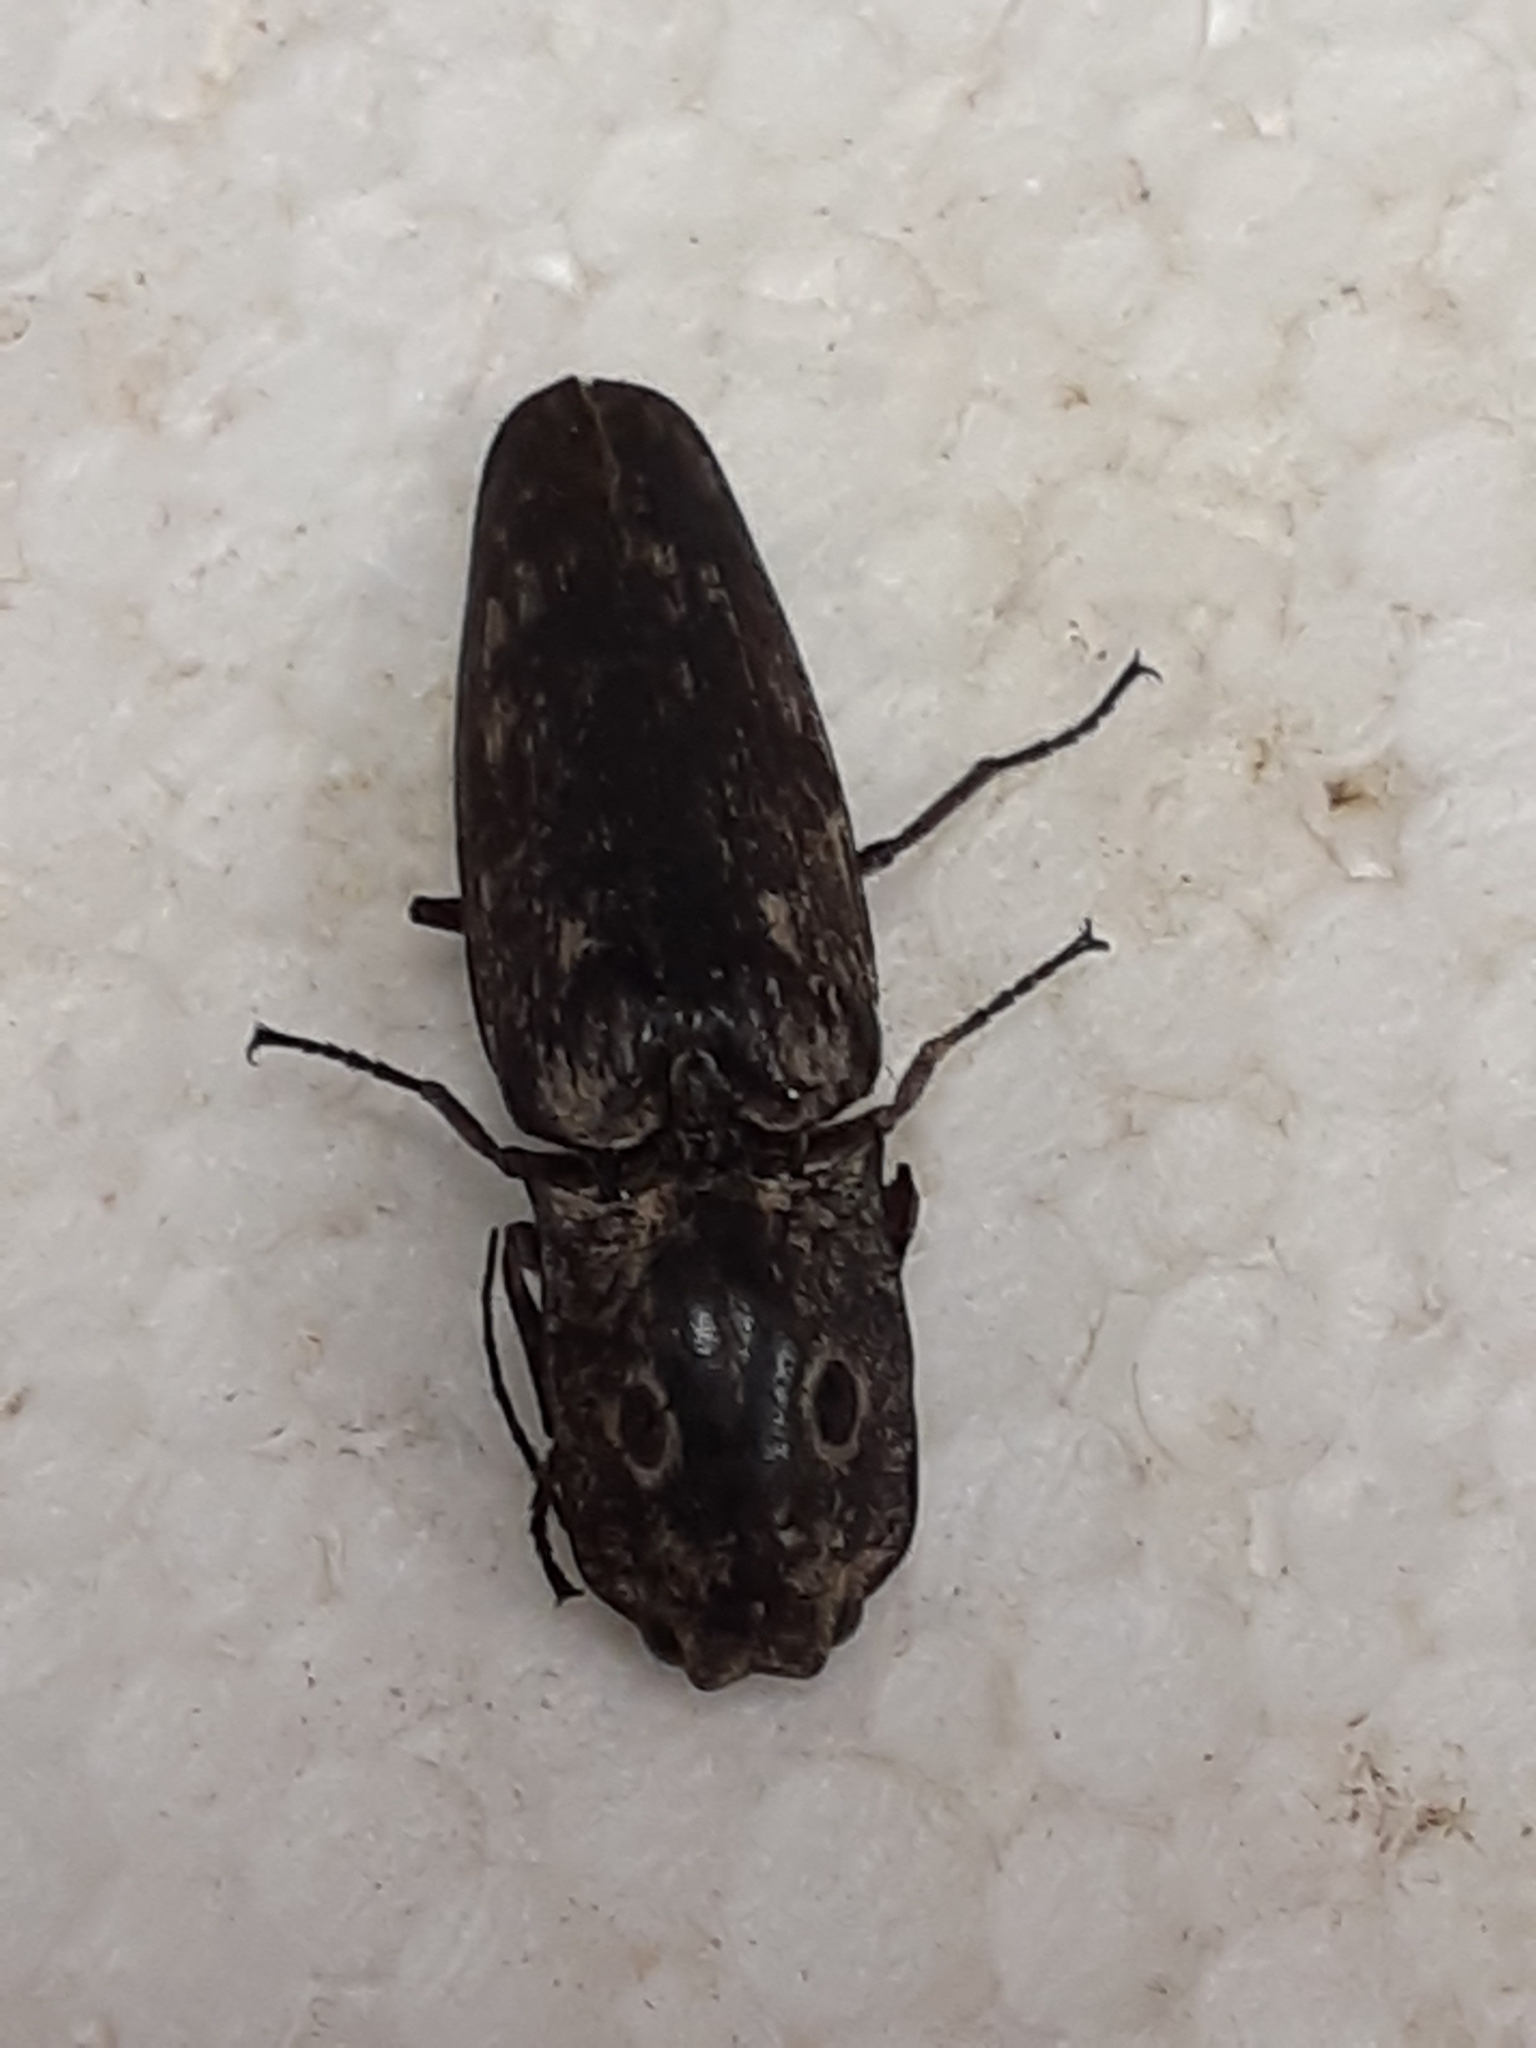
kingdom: Animalia
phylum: Arthropoda
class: Insecta
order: Coleoptera
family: Elateridae
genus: Alaus
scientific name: Alaus myops
